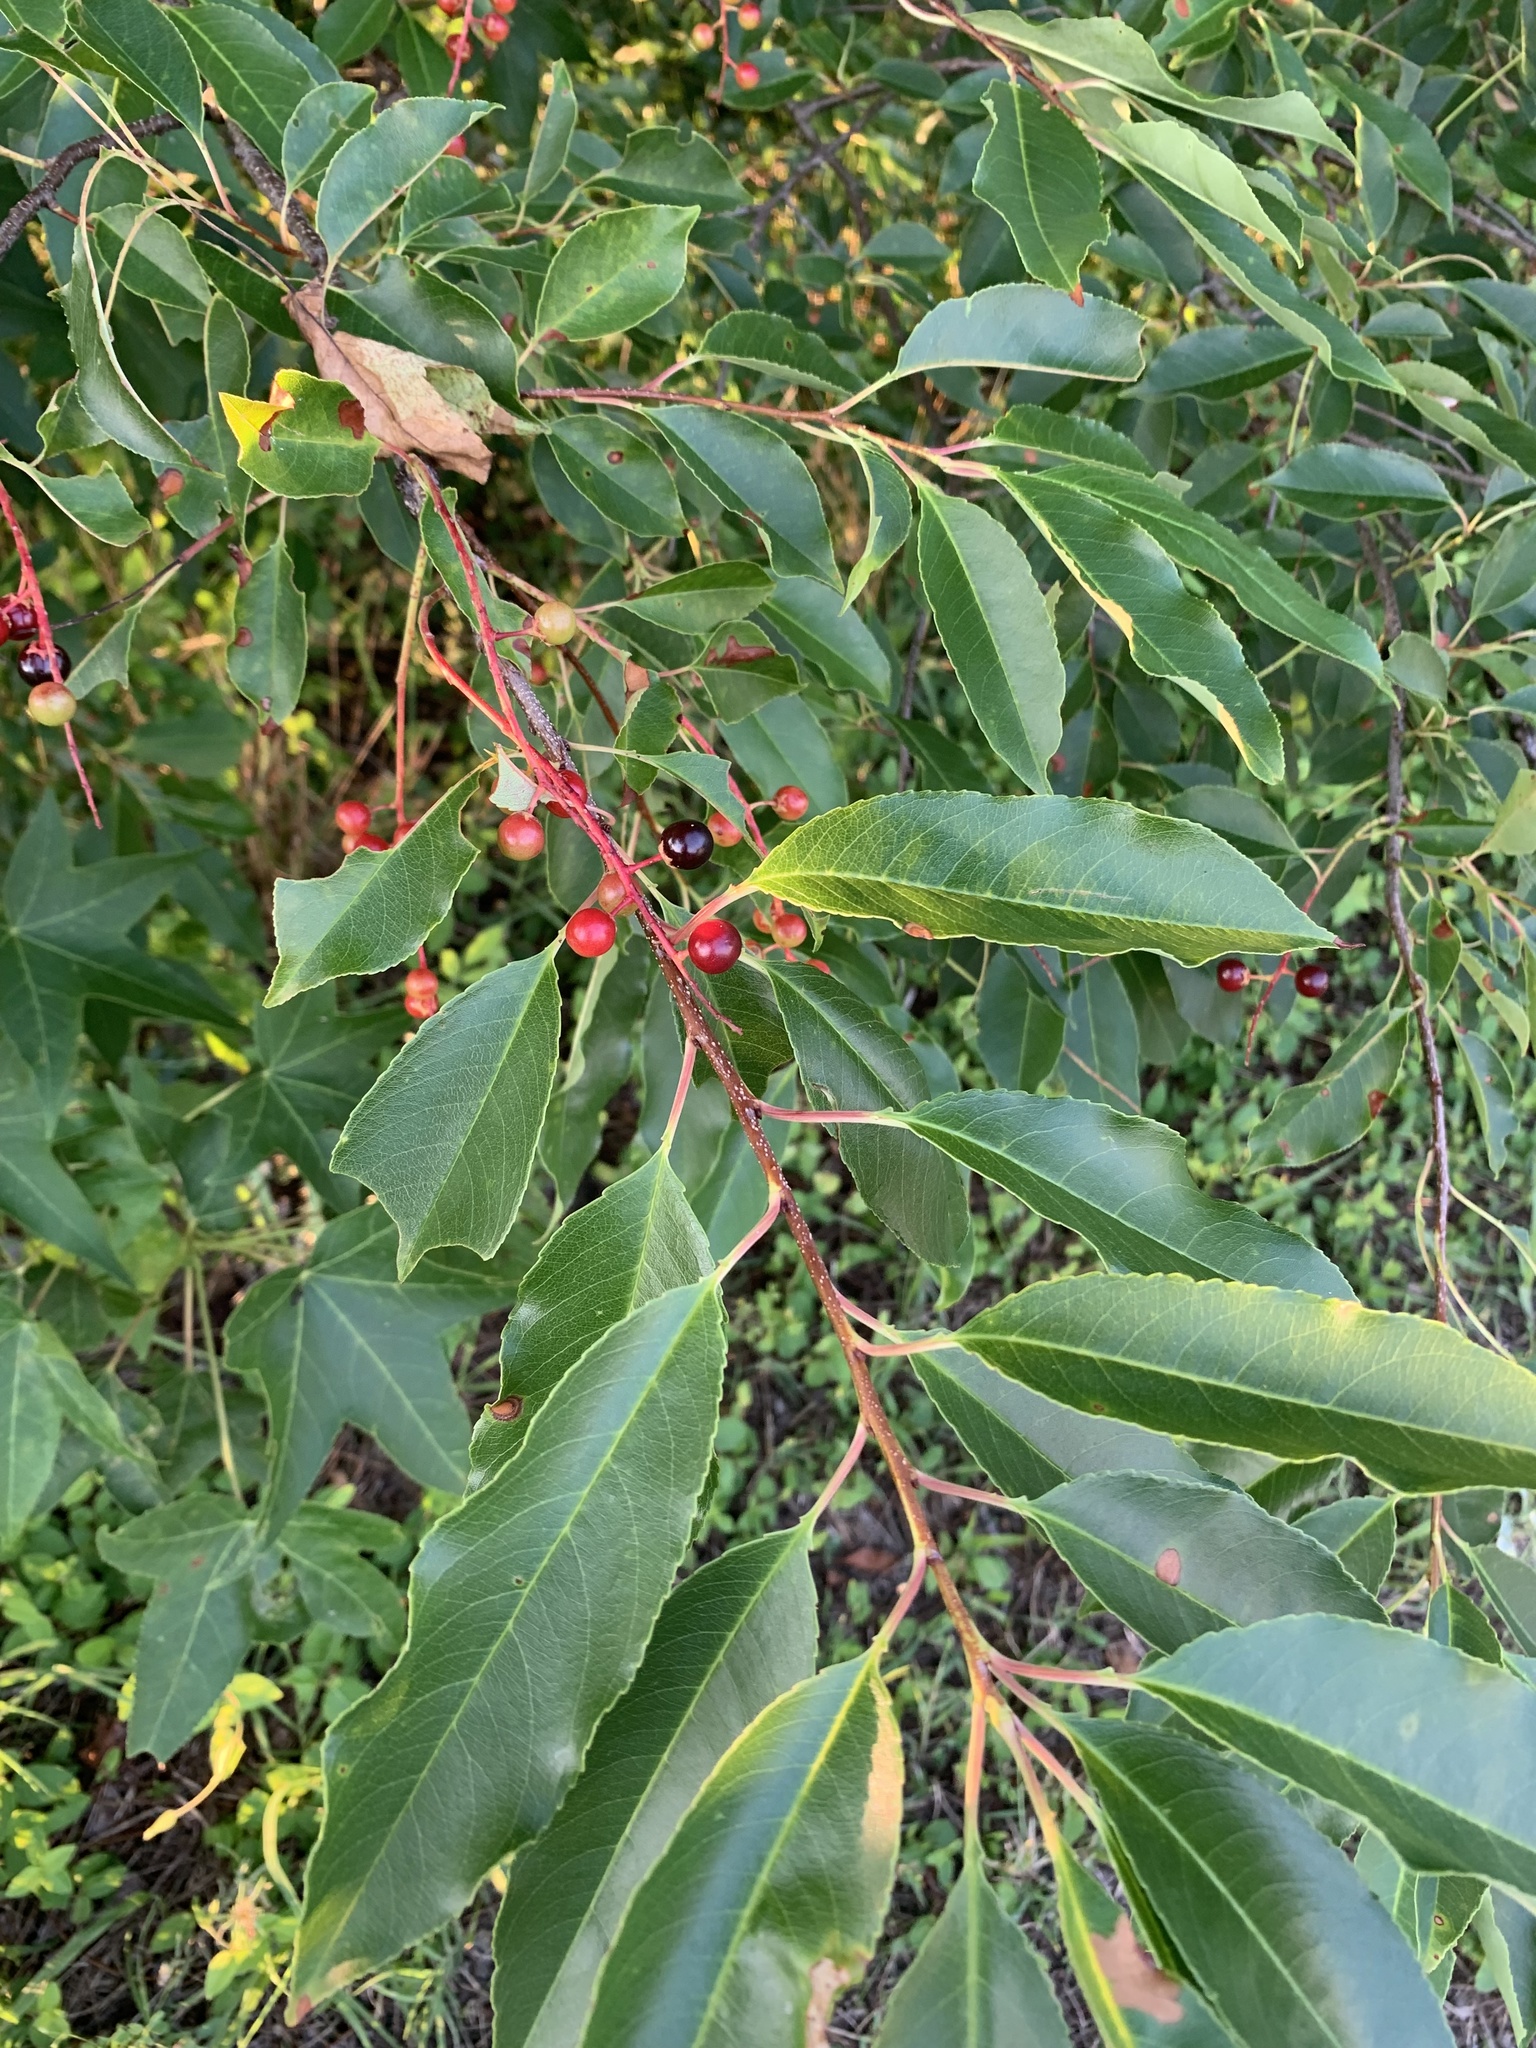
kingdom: Plantae
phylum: Tracheophyta
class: Magnoliopsida
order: Rosales
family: Rosaceae
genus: Prunus
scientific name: Prunus serotina
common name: Black cherry
